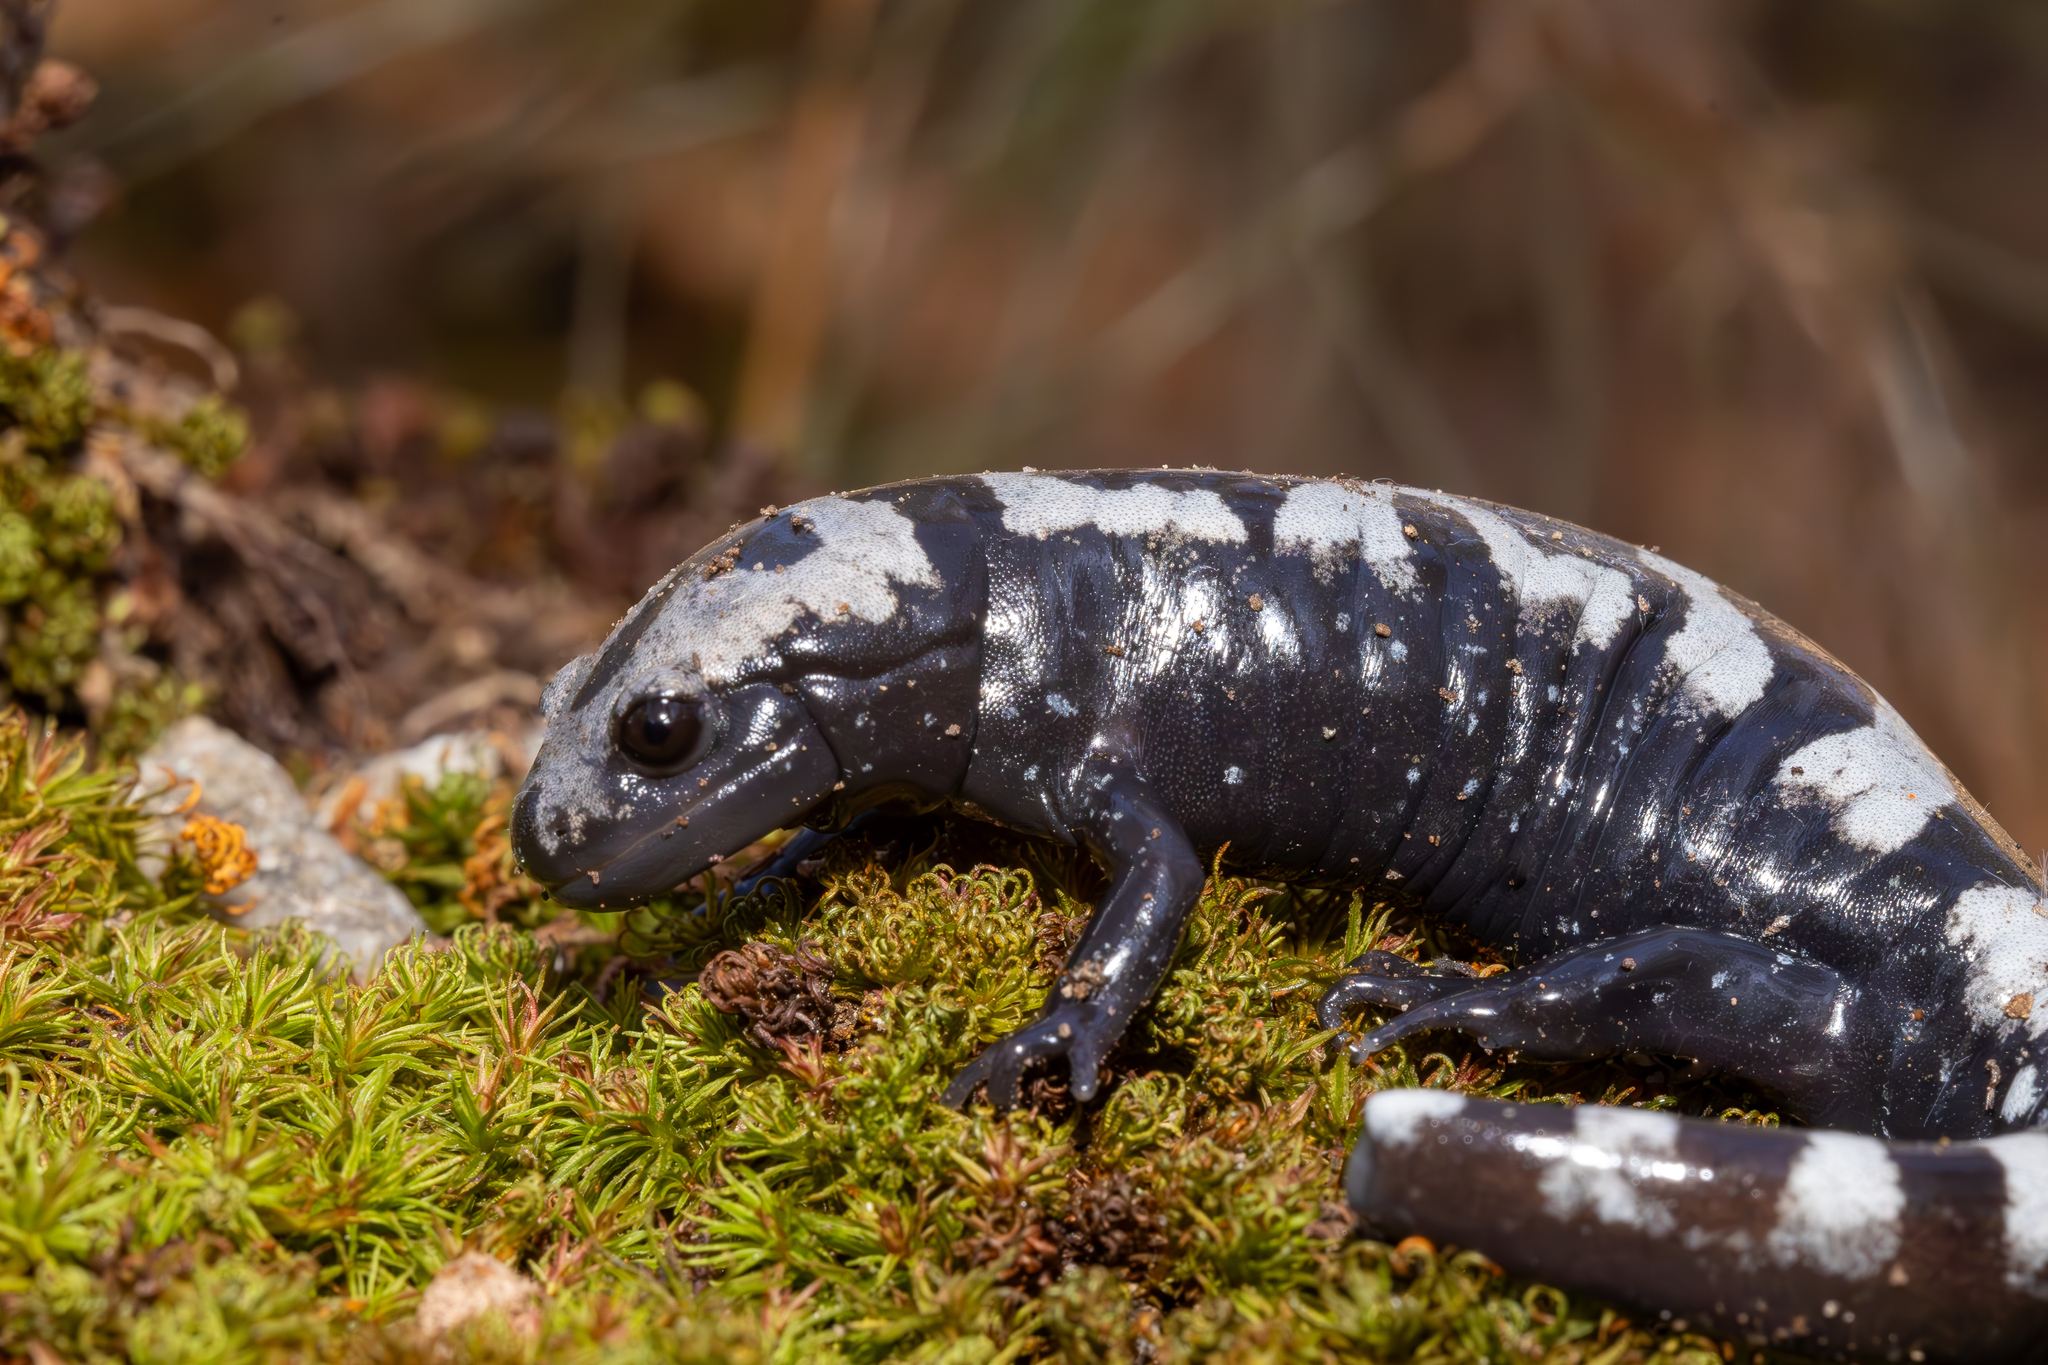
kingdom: Animalia
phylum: Chordata
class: Amphibia
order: Caudata
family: Ambystomatidae
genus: Ambystoma
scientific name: Ambystoma opacum
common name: Marbled salamander
